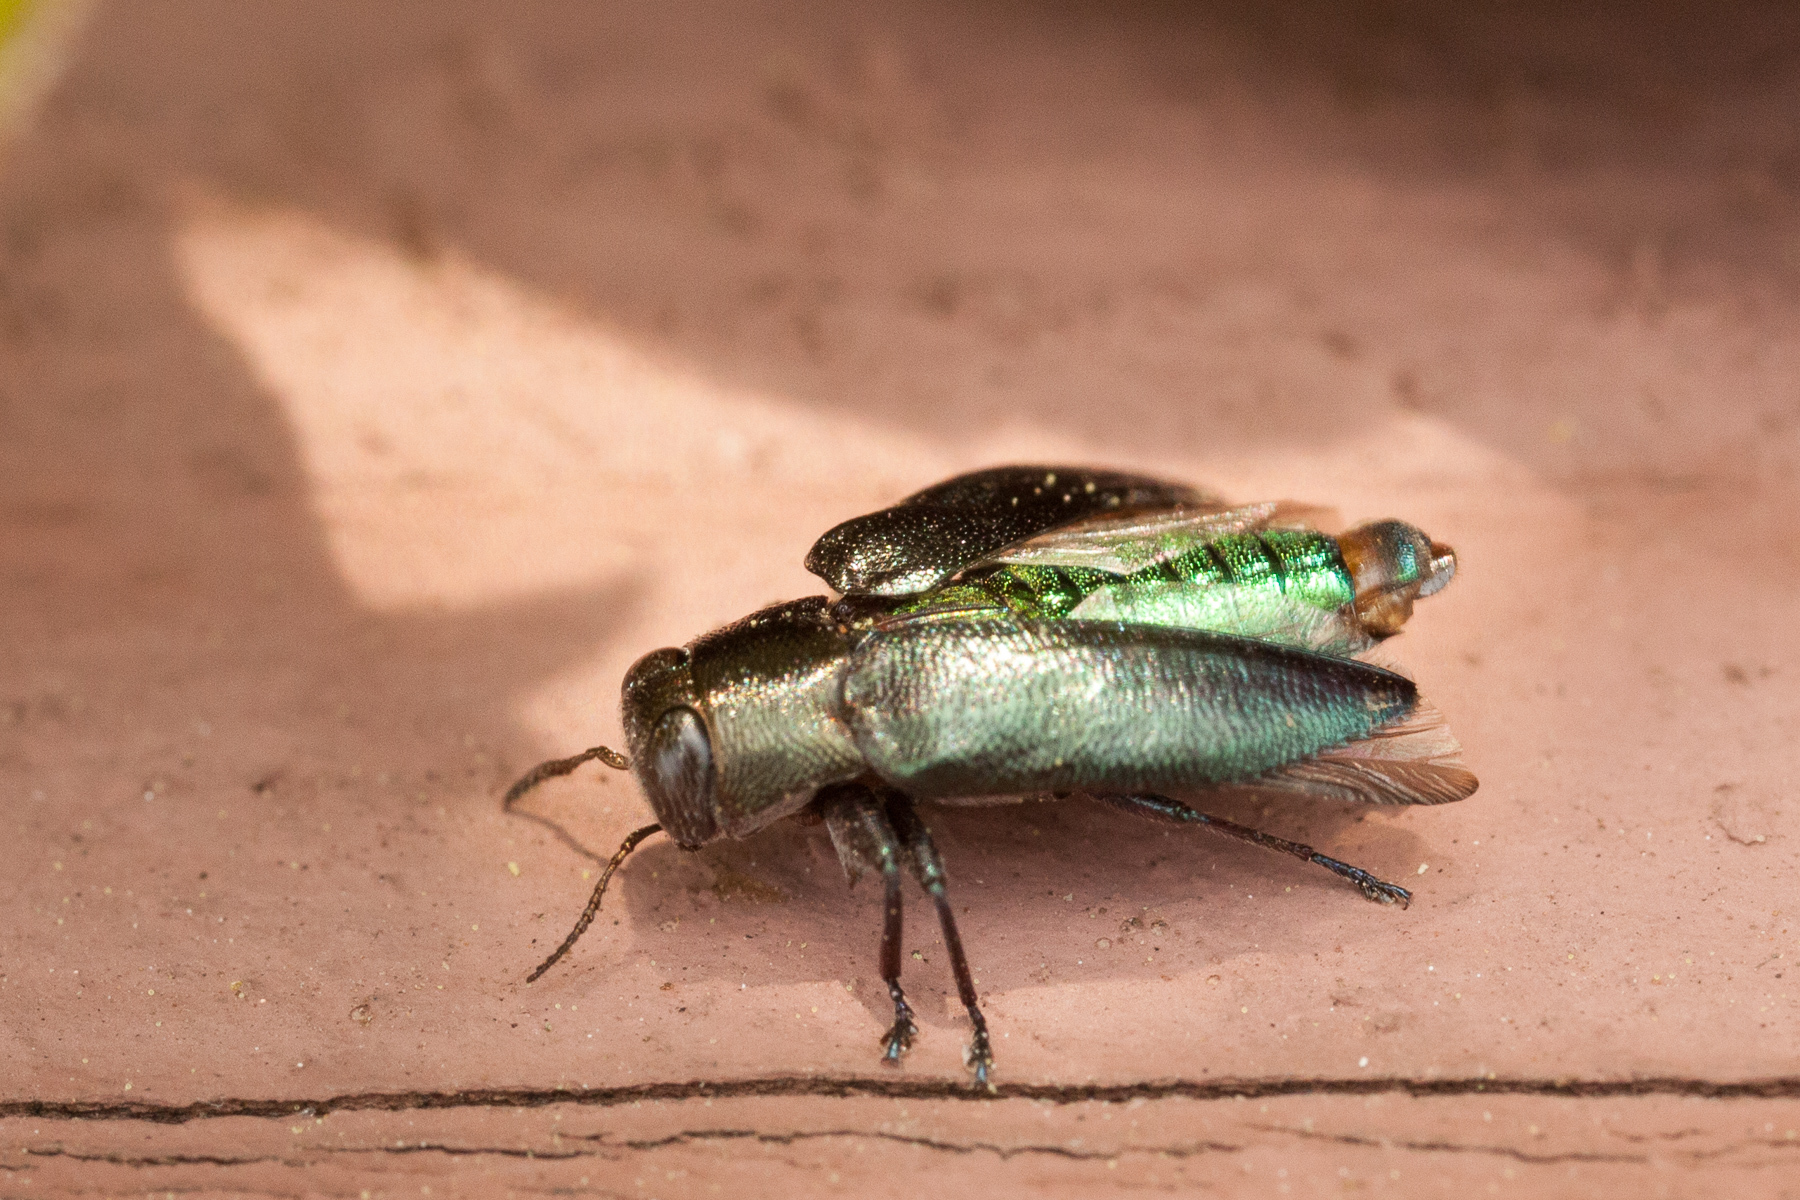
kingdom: Animalia
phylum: Arthropoda
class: Insecta
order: Coleoptera
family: Buprestidae
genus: Chrysobothris
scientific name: Chrysobothris analis
